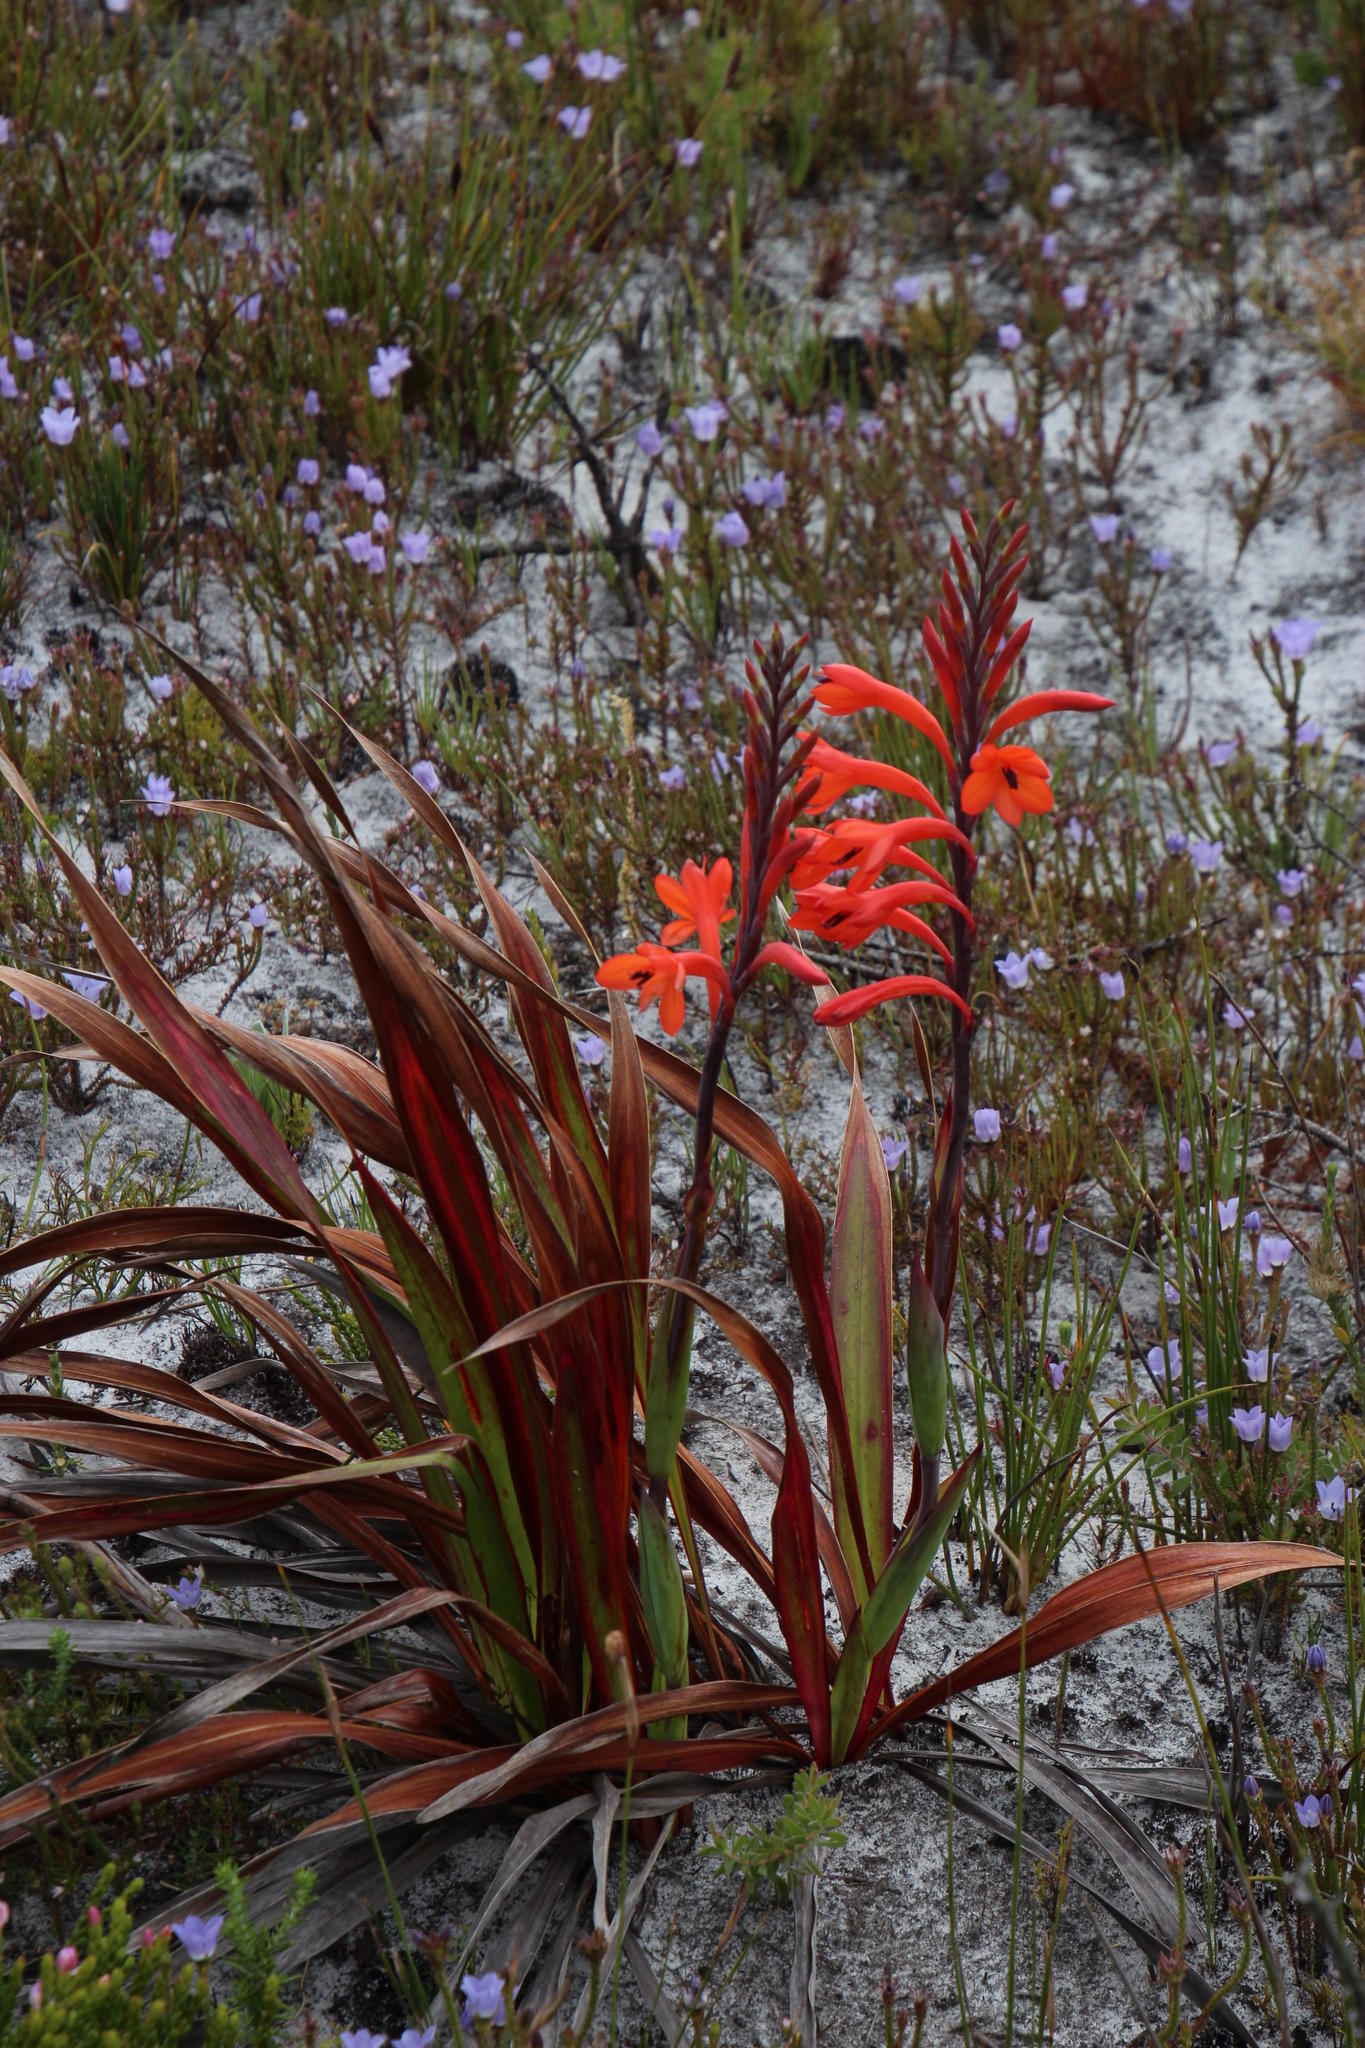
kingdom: Plantae
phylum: Tracheophyta
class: Liliopsida
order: Asparagales
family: Iridaceae
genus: Watsonia
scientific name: Watsonia tabularis
